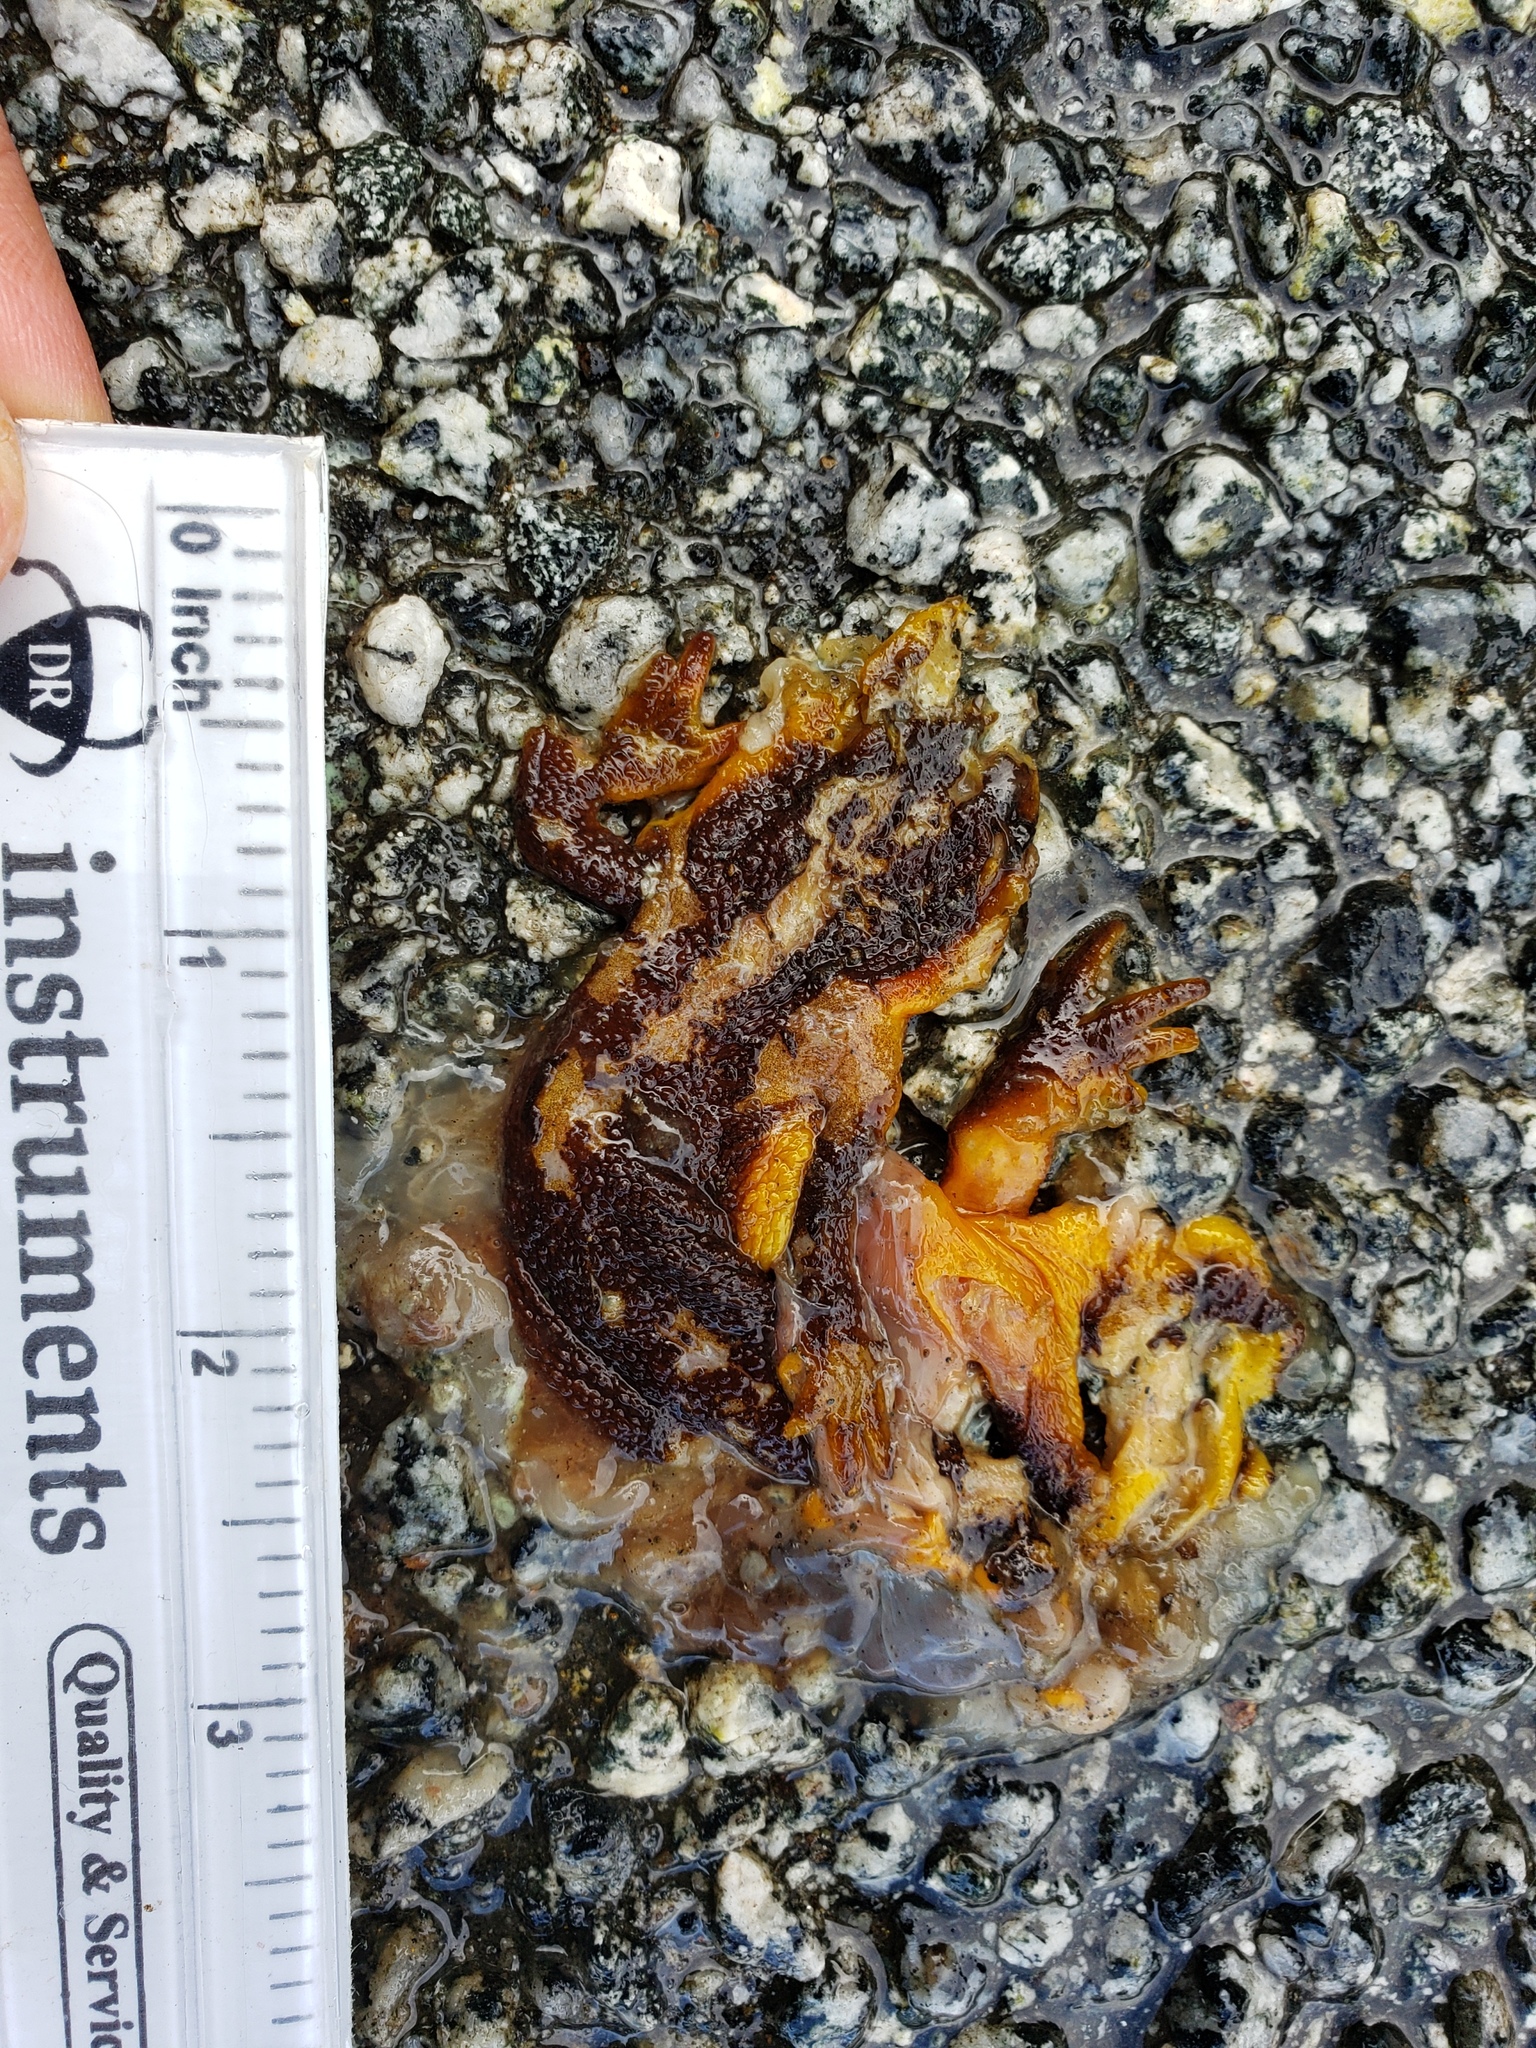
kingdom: Animalia
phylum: Chordata
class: Amphibia
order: Caudata
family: Salamandridae
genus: Taricha
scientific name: Taricha
